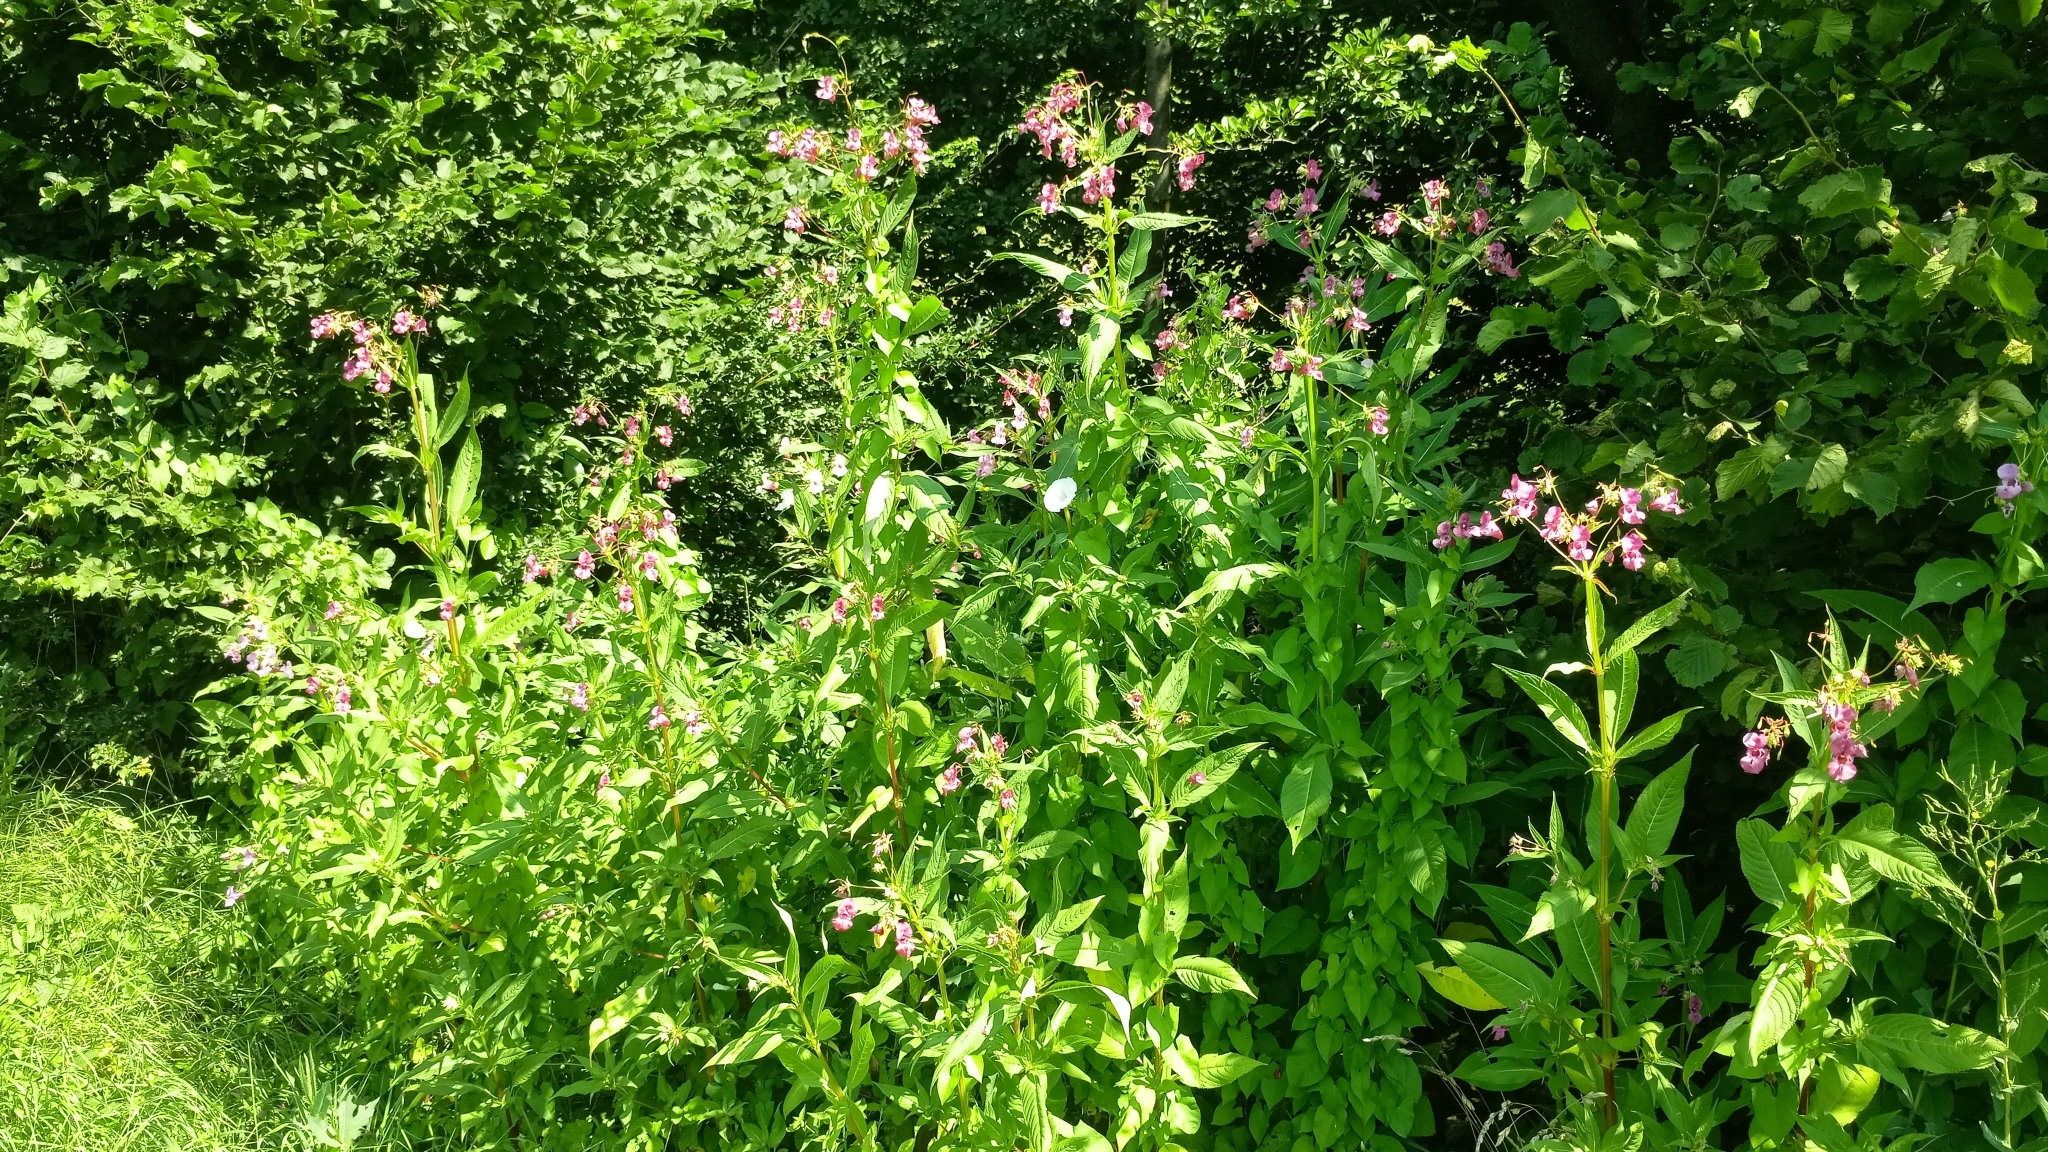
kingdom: Plantae
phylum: Tracheophyta
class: Magnoliopsida
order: Ericales
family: Balsaminaceae
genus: Impatiens
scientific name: Impatiens glandulifera
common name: Himalayan balsam
